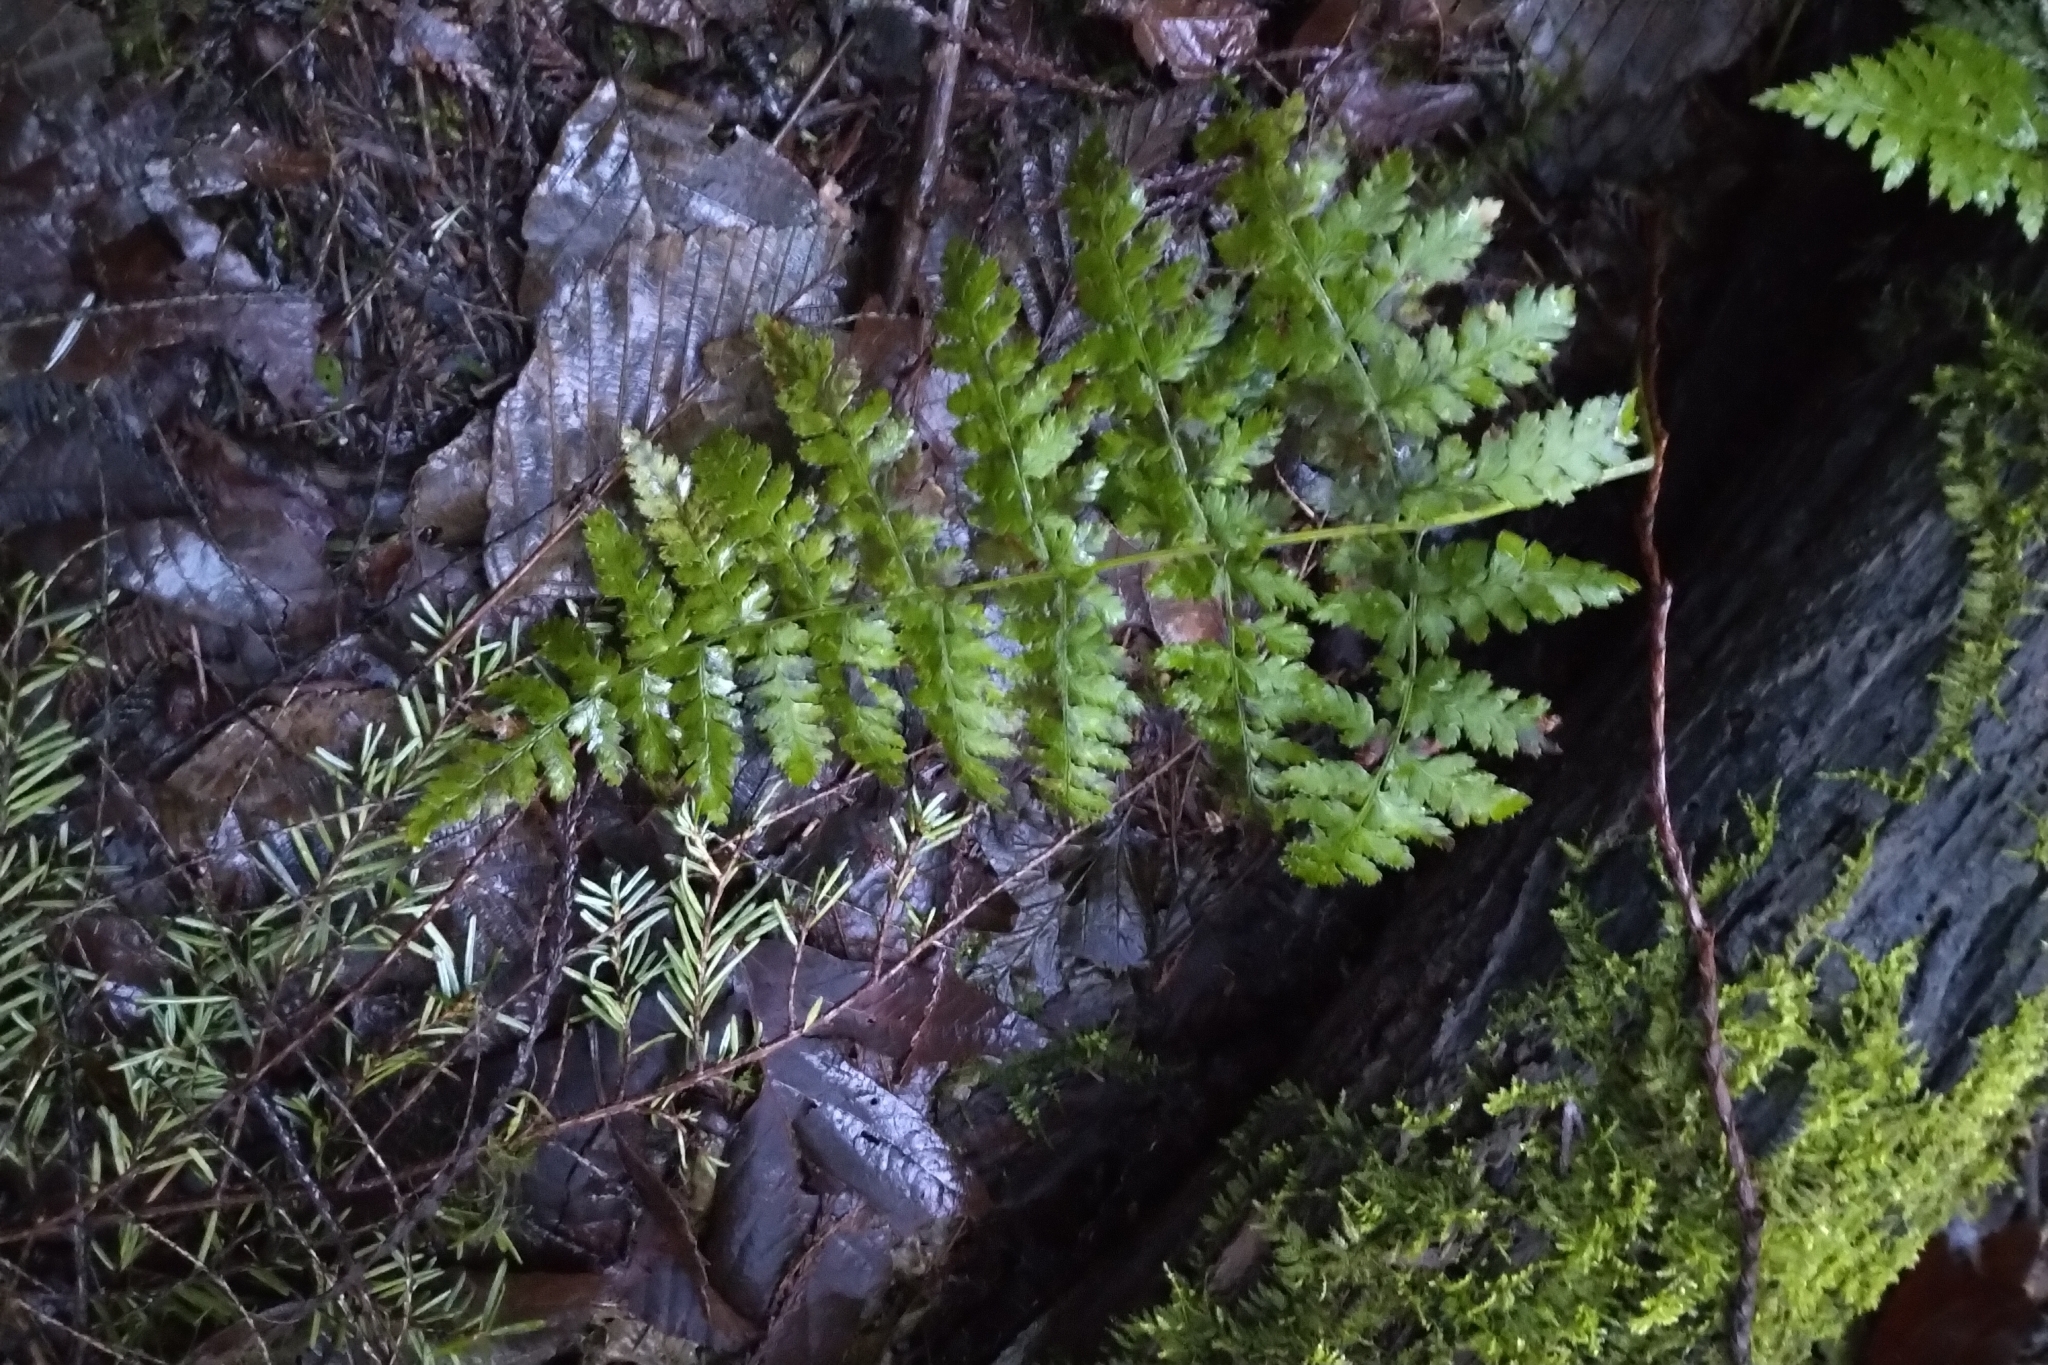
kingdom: Plantae
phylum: Tracheophyta
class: Polypodiopsida
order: Polypodiales
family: Dryopteridaceae
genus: Dryopteris
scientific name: Dryopteris expansa
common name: Northern buckler fern
